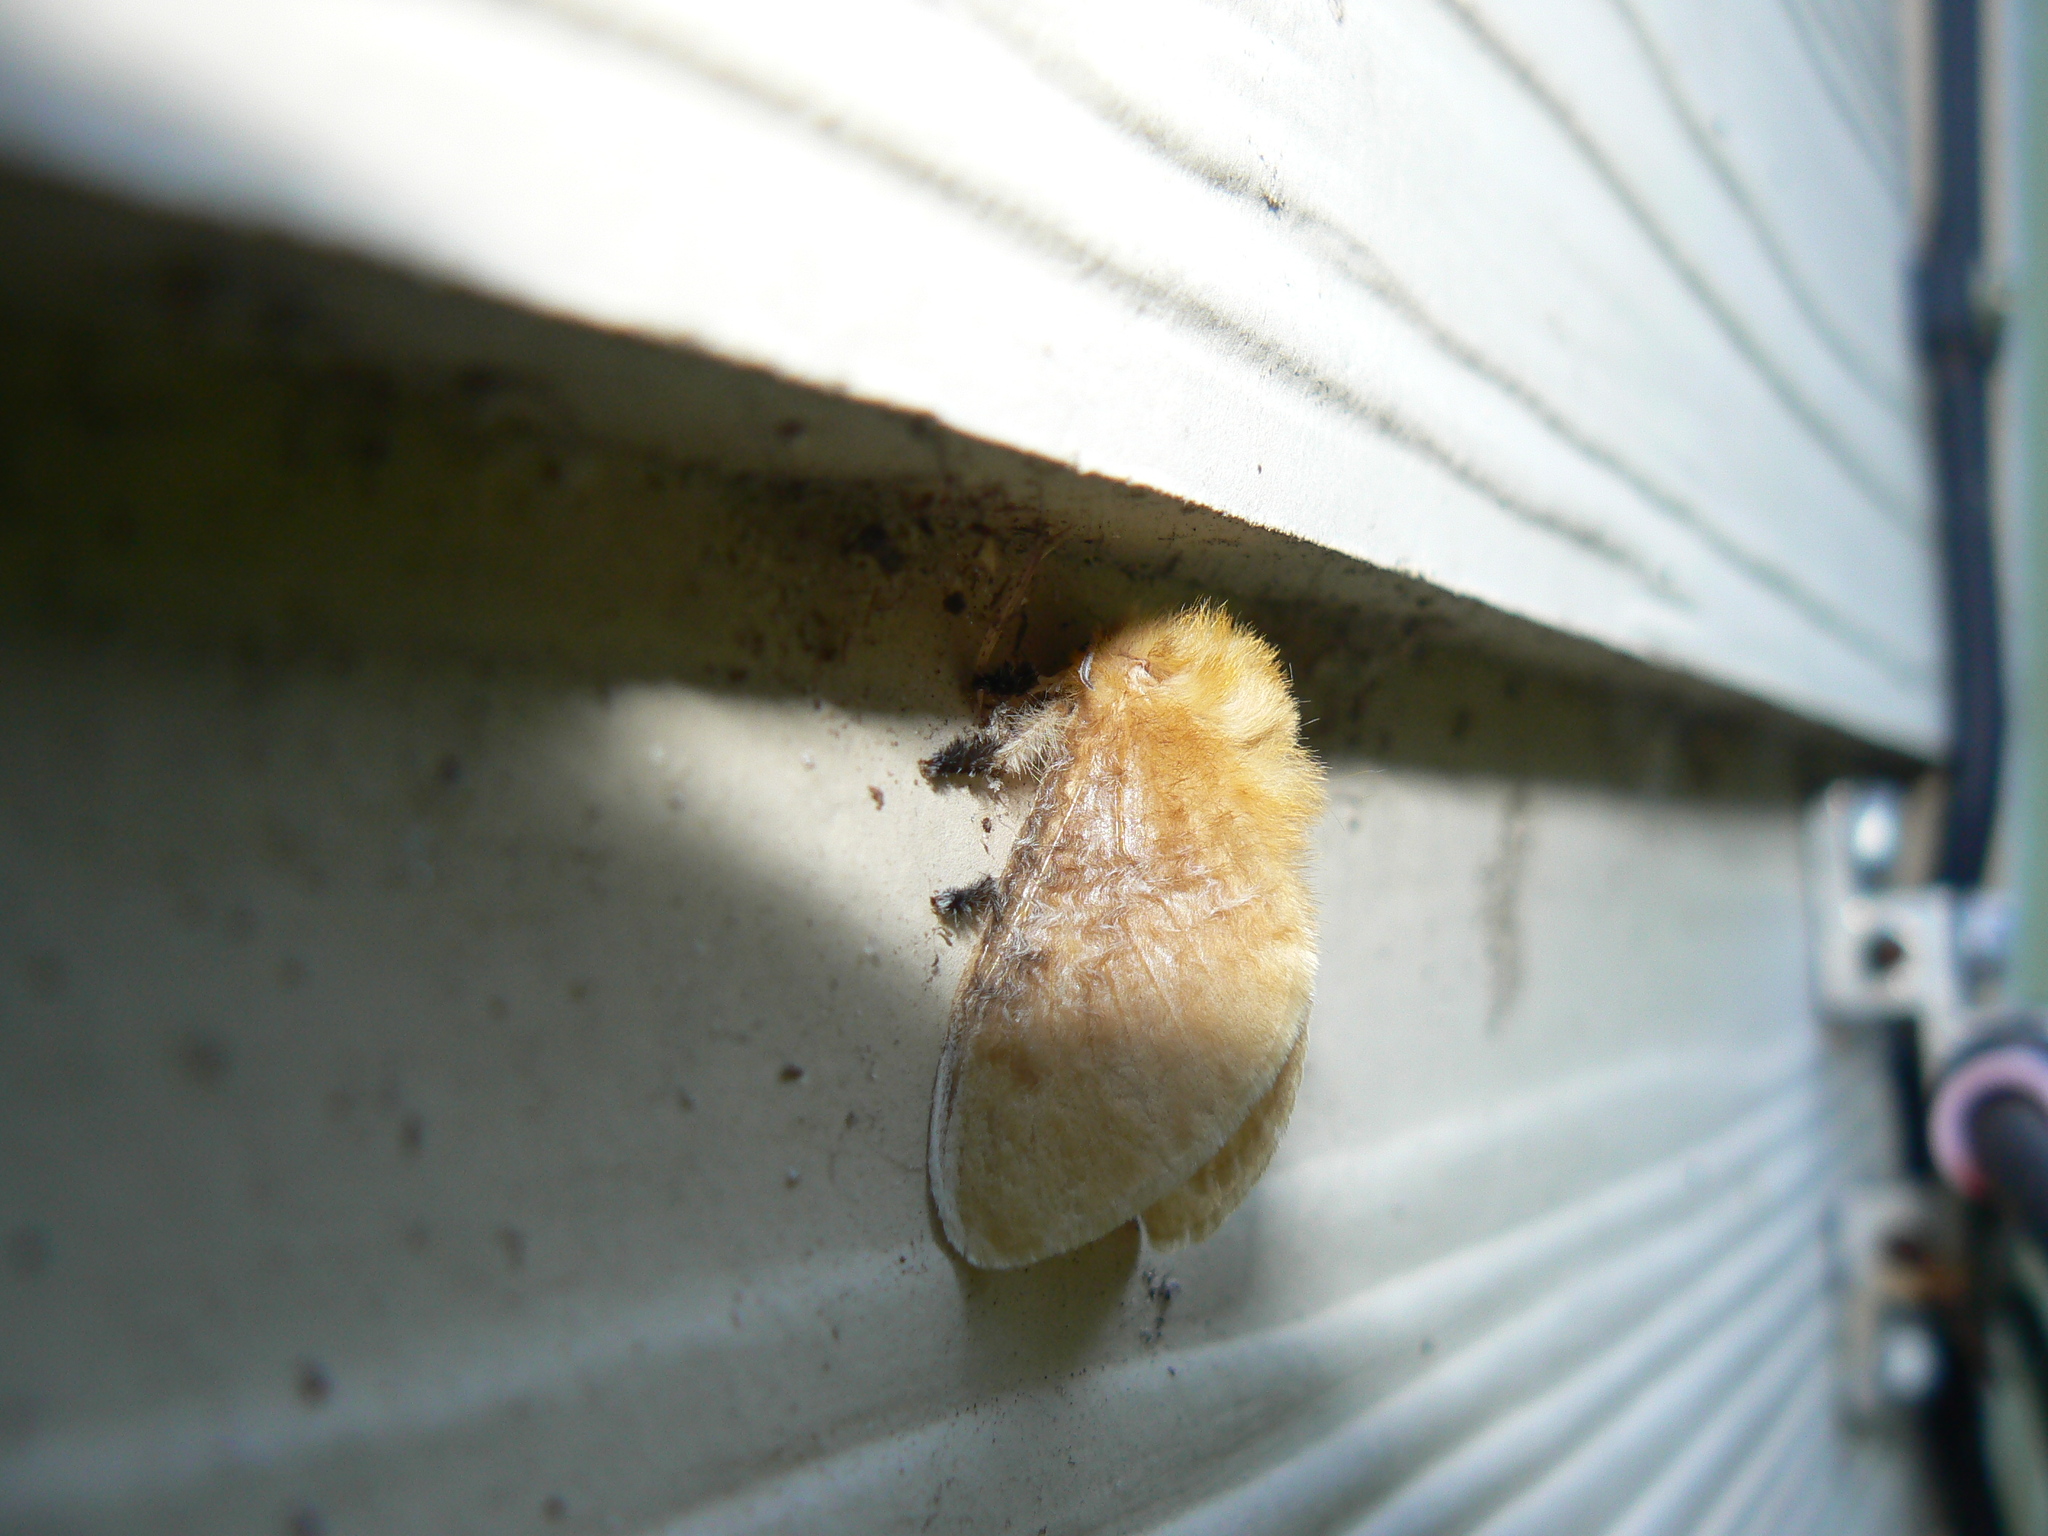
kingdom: Animalia
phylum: Arthropoda
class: Insecta
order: Lepidoptera
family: Megalopygidae
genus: Megalopyge
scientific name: Megalopyge opercularis
